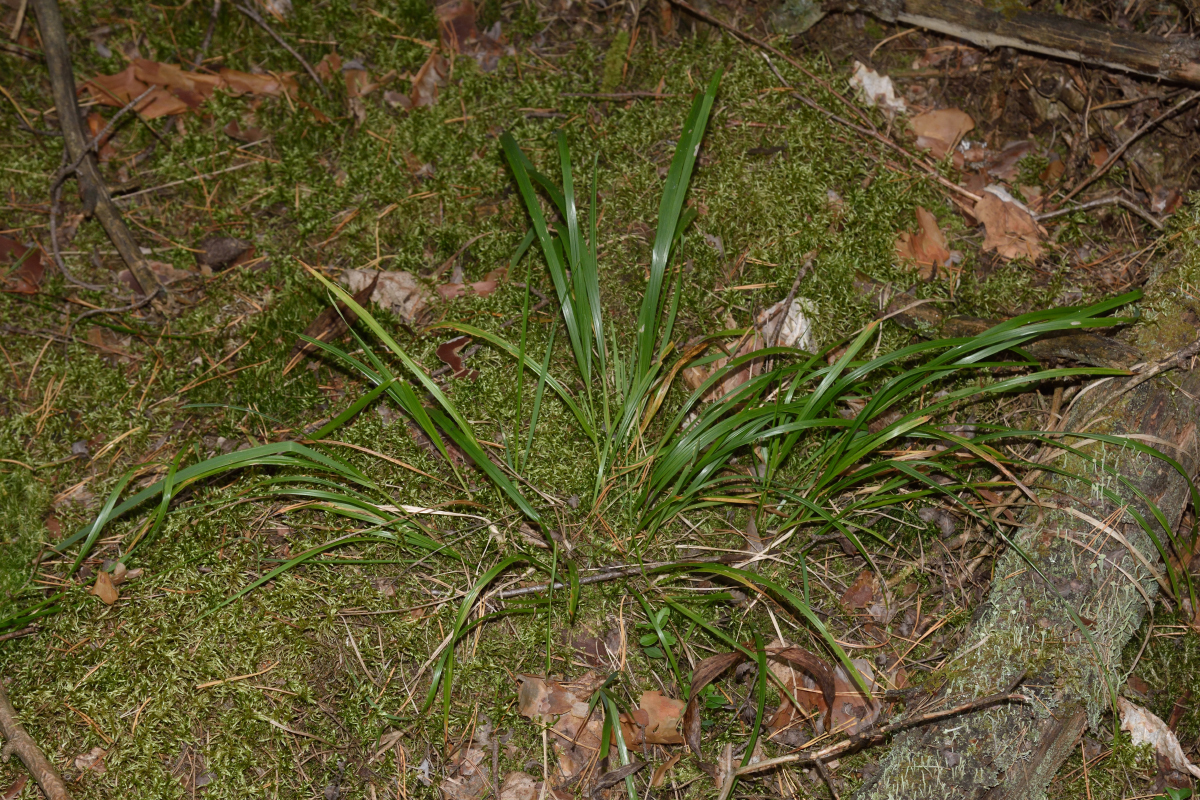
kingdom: Plantae
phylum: Tracheophyta
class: Liliopsida
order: Poales
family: Poaceae
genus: Calamagrostis
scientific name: Calamagrostis arundinacea
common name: Metskastik
